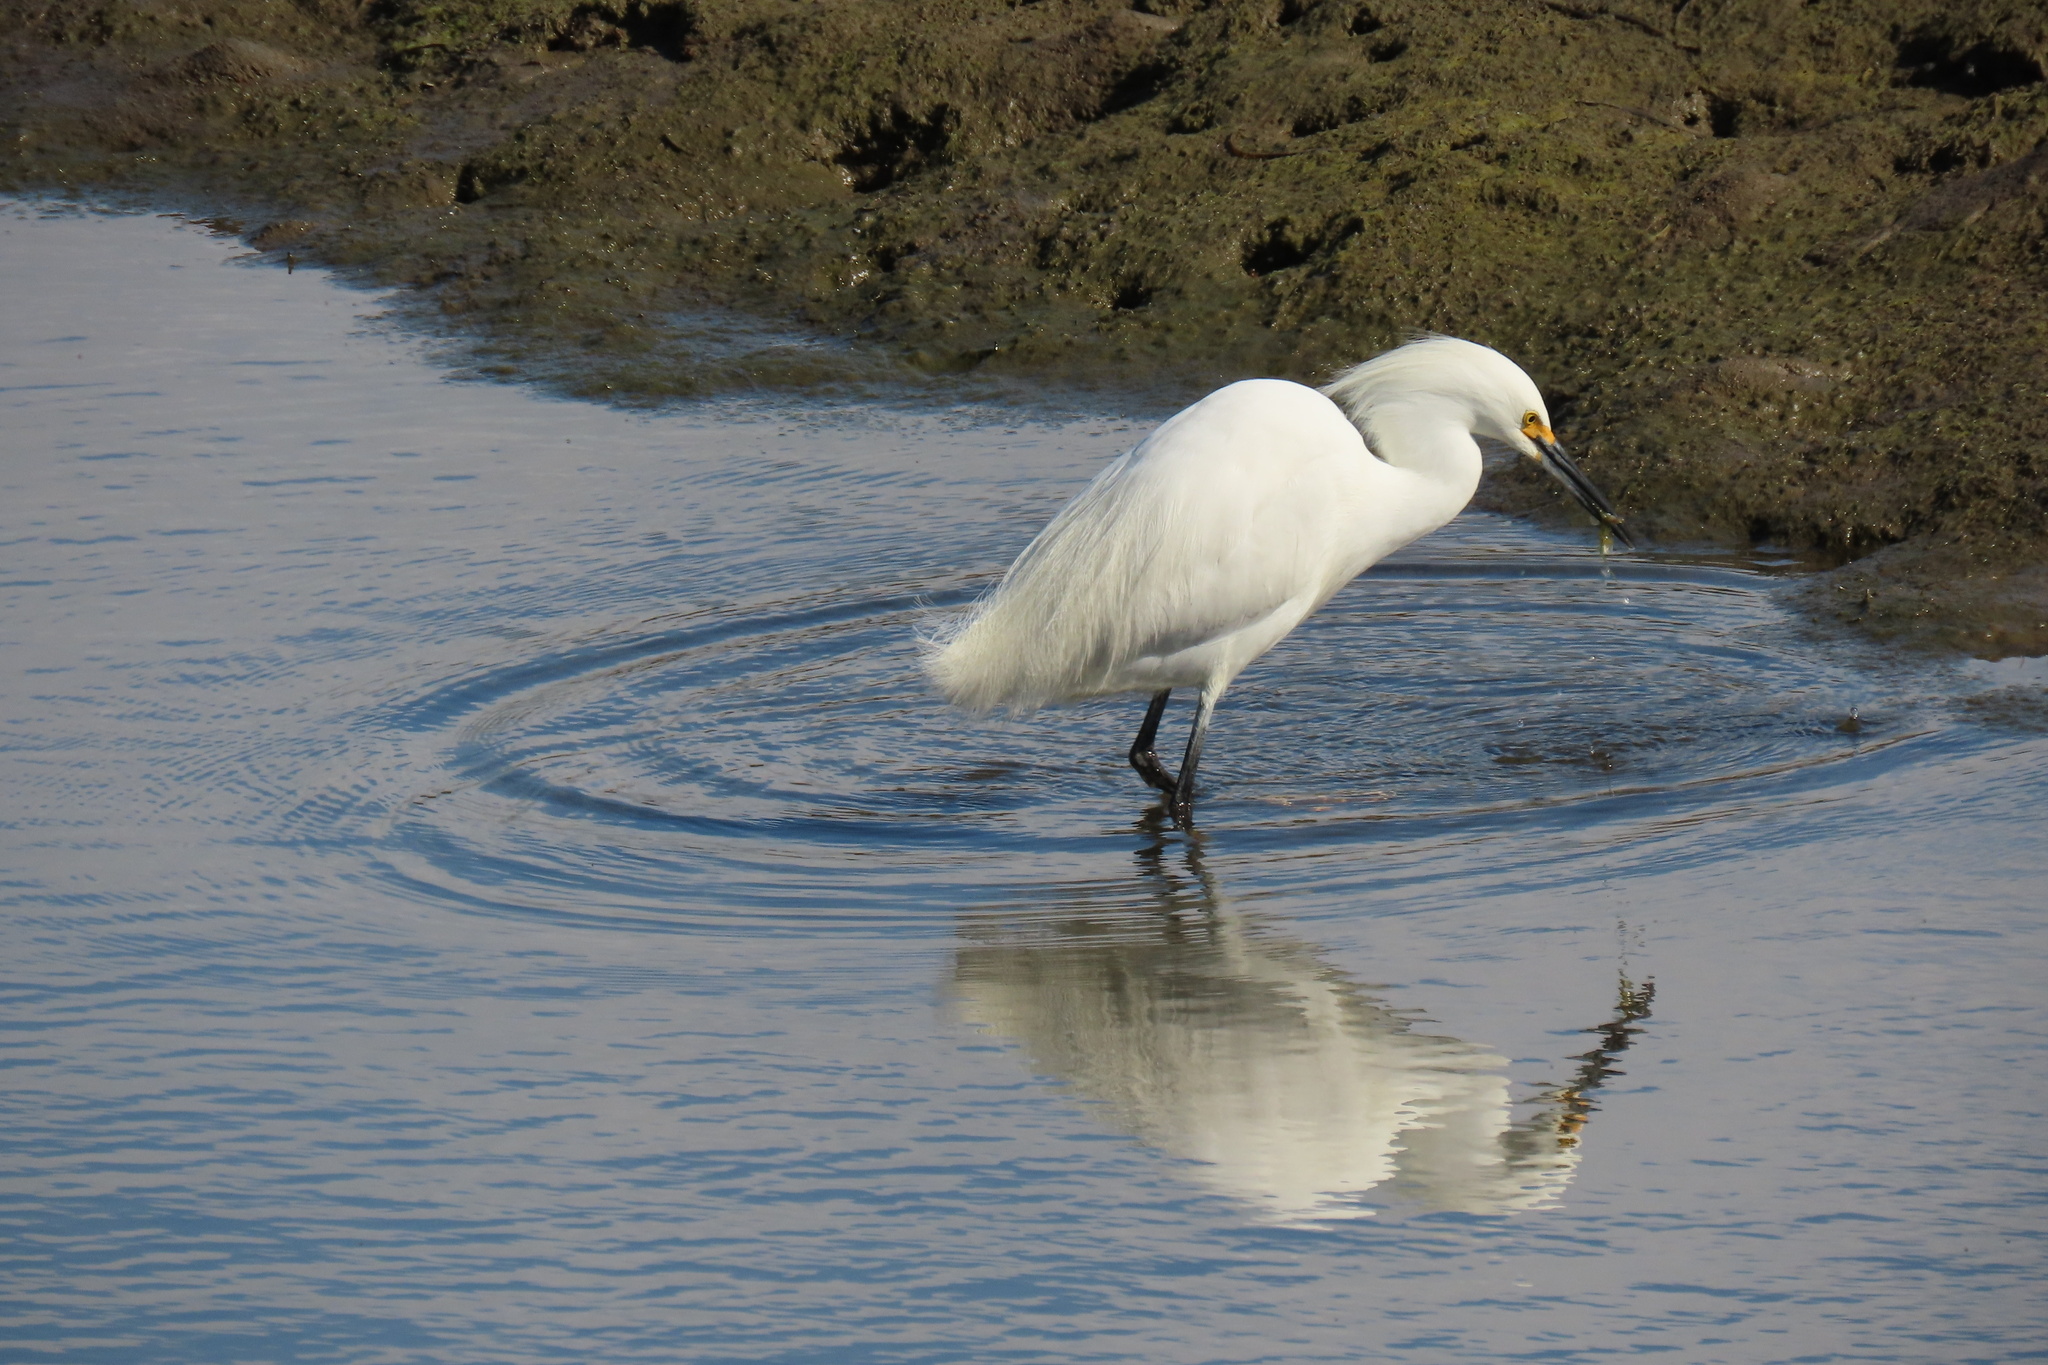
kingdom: Animalia
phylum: Chordata
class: Aves
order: Pelecaniformes
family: Ardeidae
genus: Egretta
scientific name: Egretta thula
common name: Snowy egret
